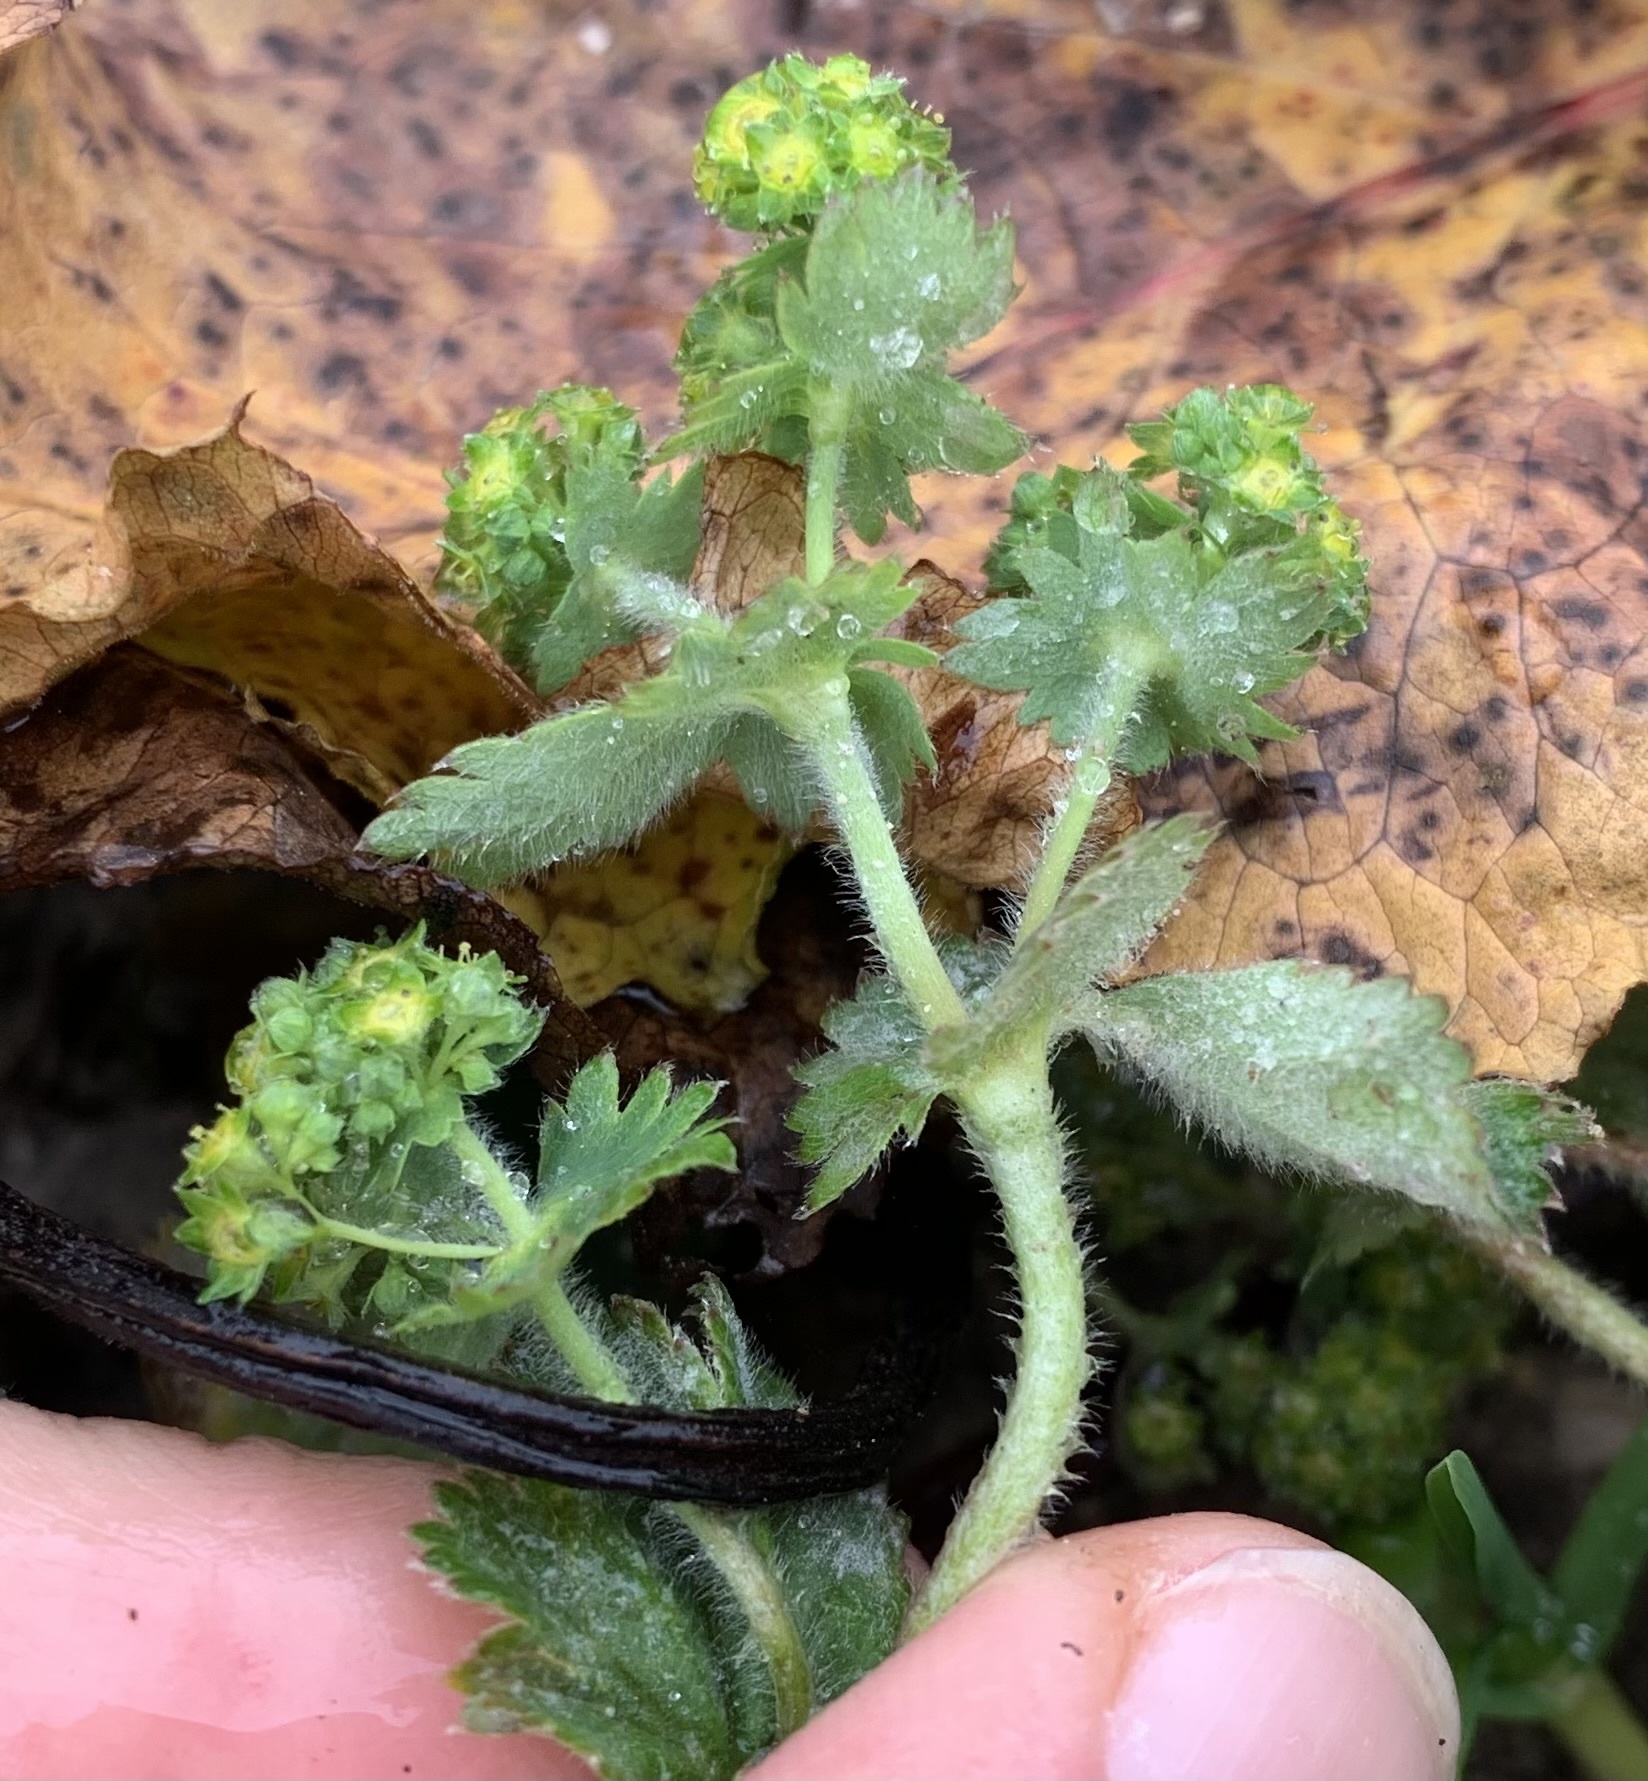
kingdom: Plantae
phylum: Tracheophyta
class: Magnoliopsida
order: Rosales
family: Rosaceae
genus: Alchemilla
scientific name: Alchemilla monticola
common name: Hairy lady's mantle
